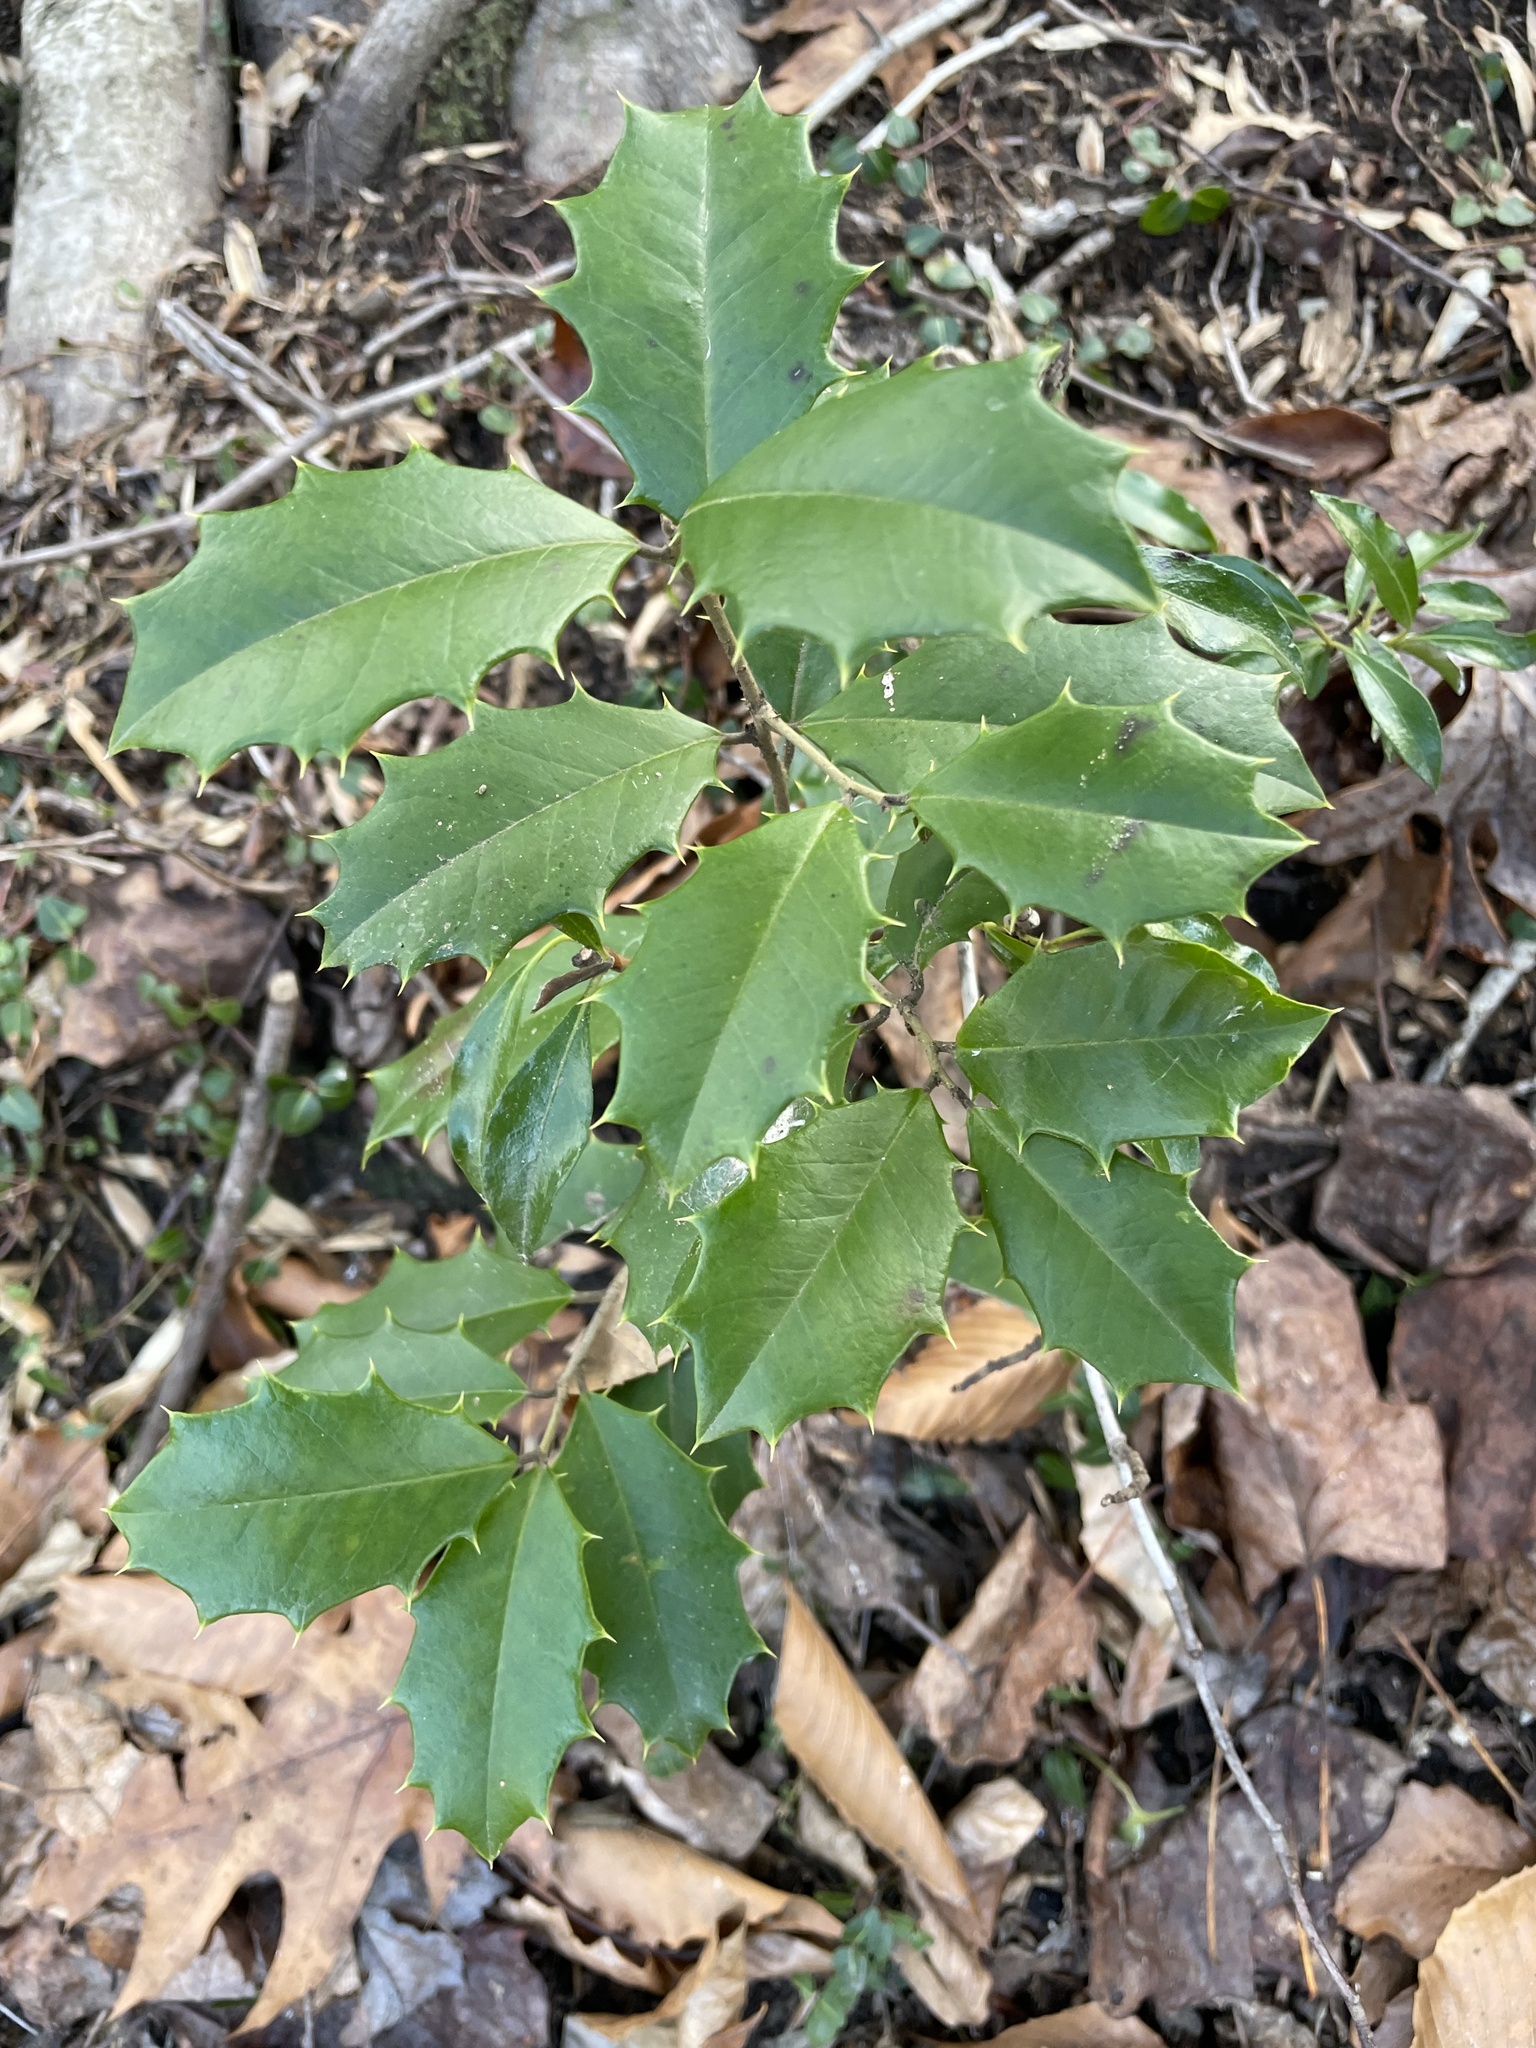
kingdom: Plantae
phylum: Tracheophyta
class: Magnoliopsida
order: Aquifoliales
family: Aquifoliaceae
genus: Ilex
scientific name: Ilex opaca
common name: American holly
